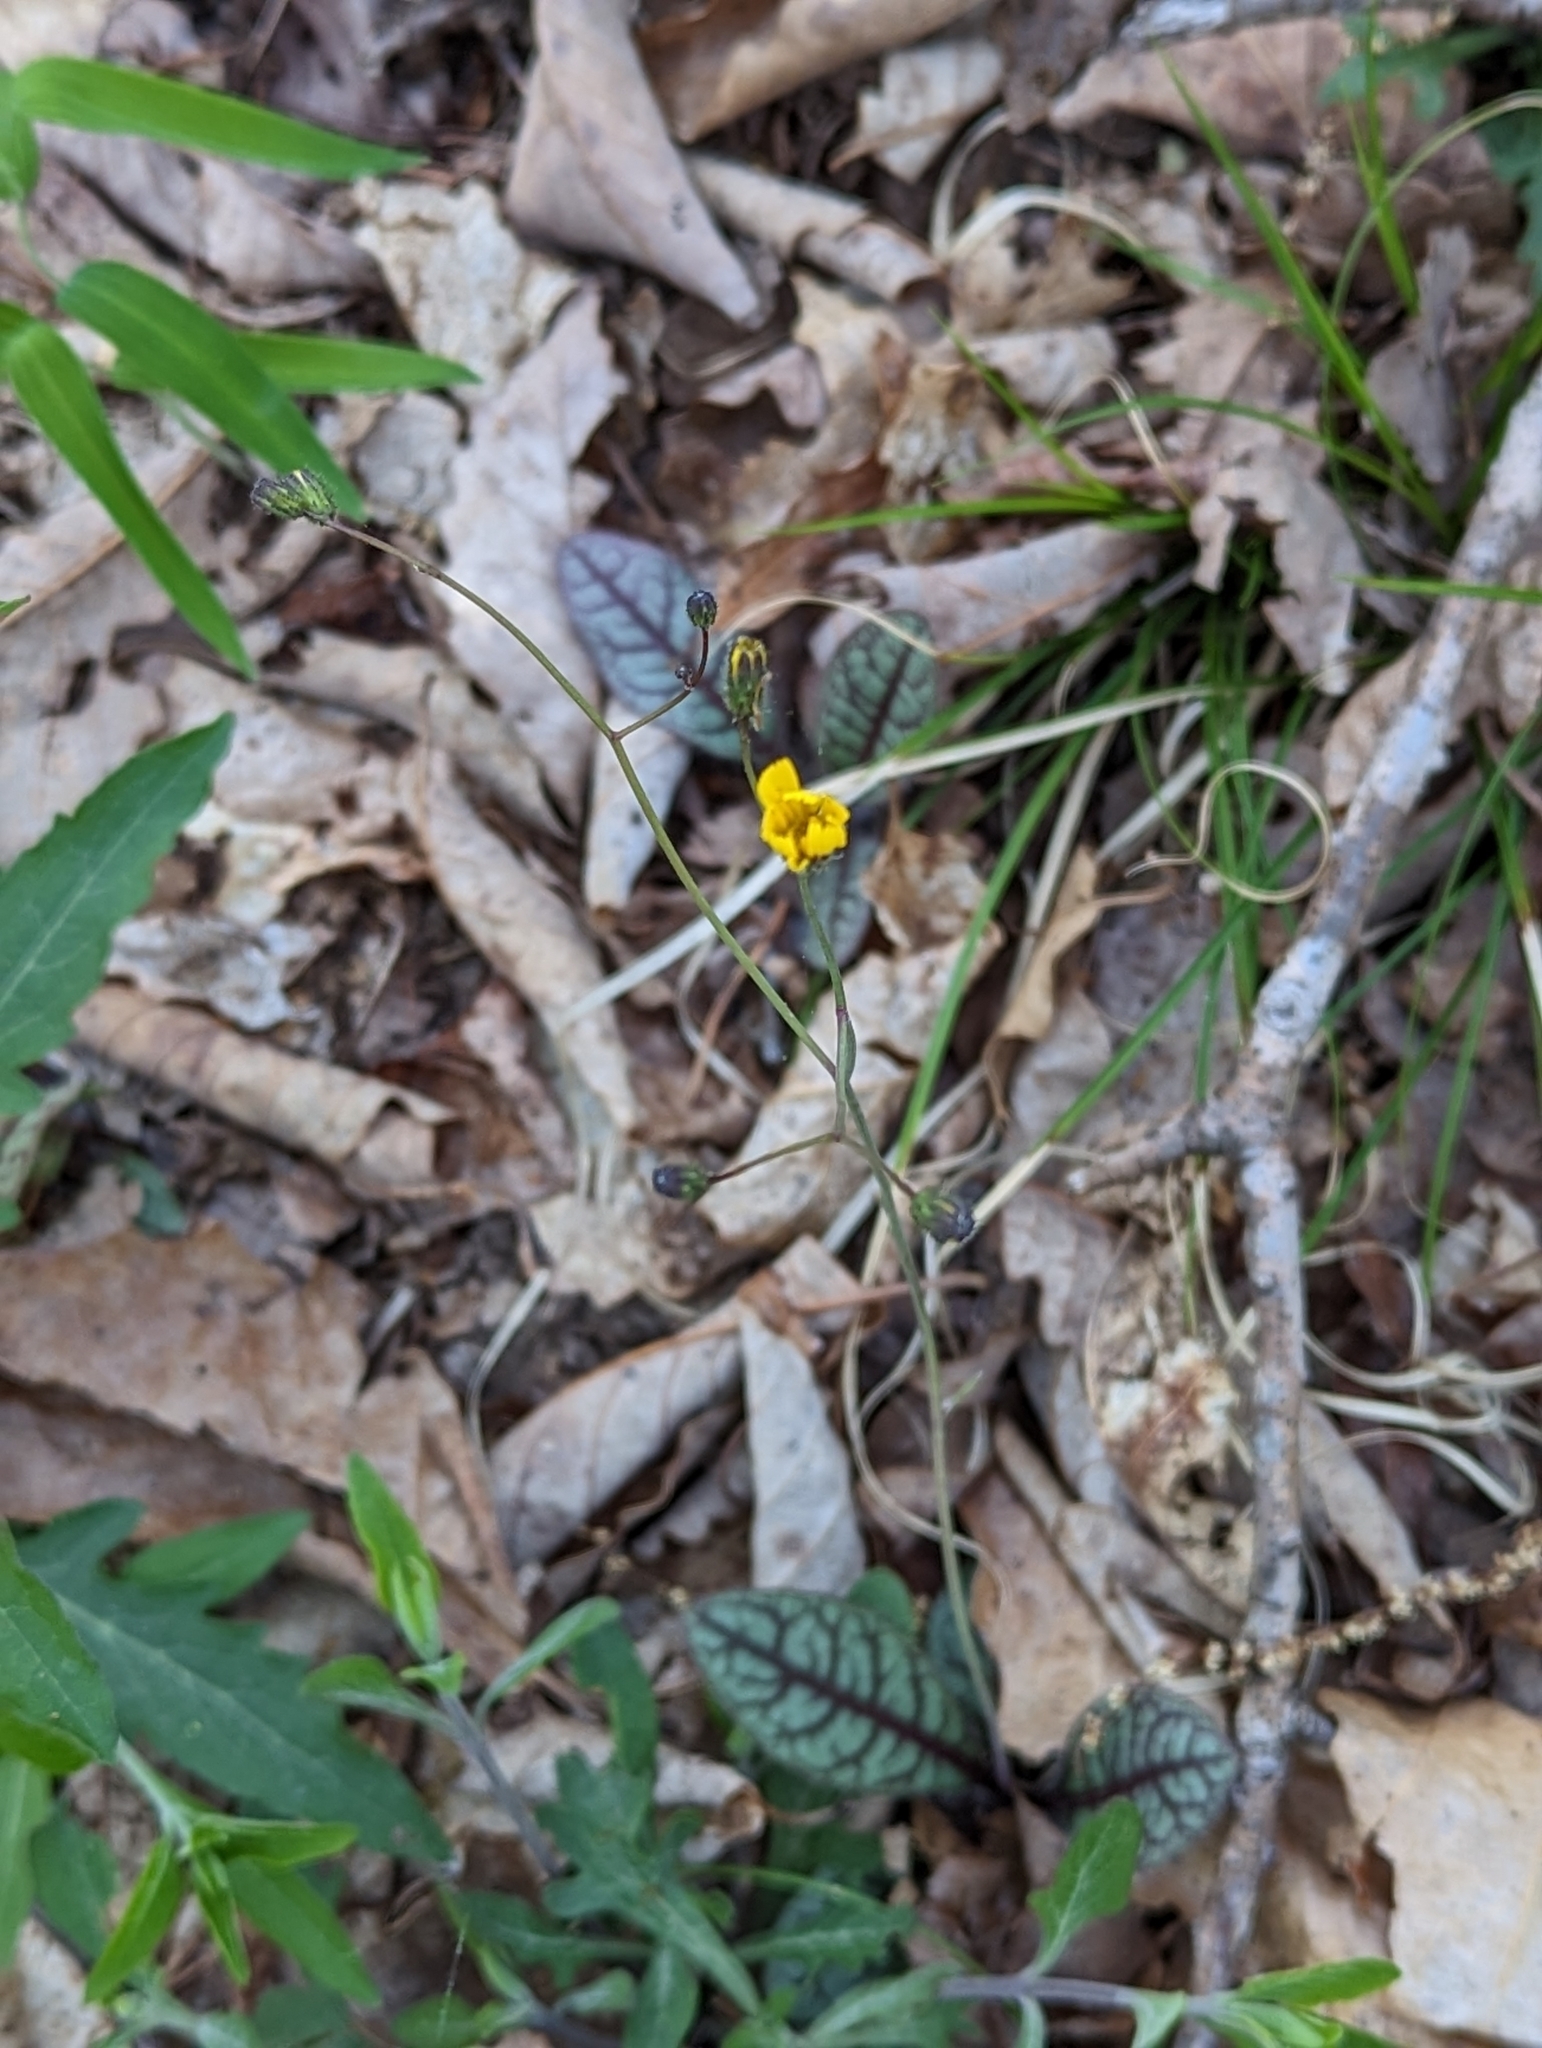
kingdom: Plantae
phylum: Tracheophyta
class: Magnoliopsida
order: Asterales
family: Asteraceae
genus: Hieracium
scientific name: Hieracium venosum
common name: Rattlesnake hawkweed
